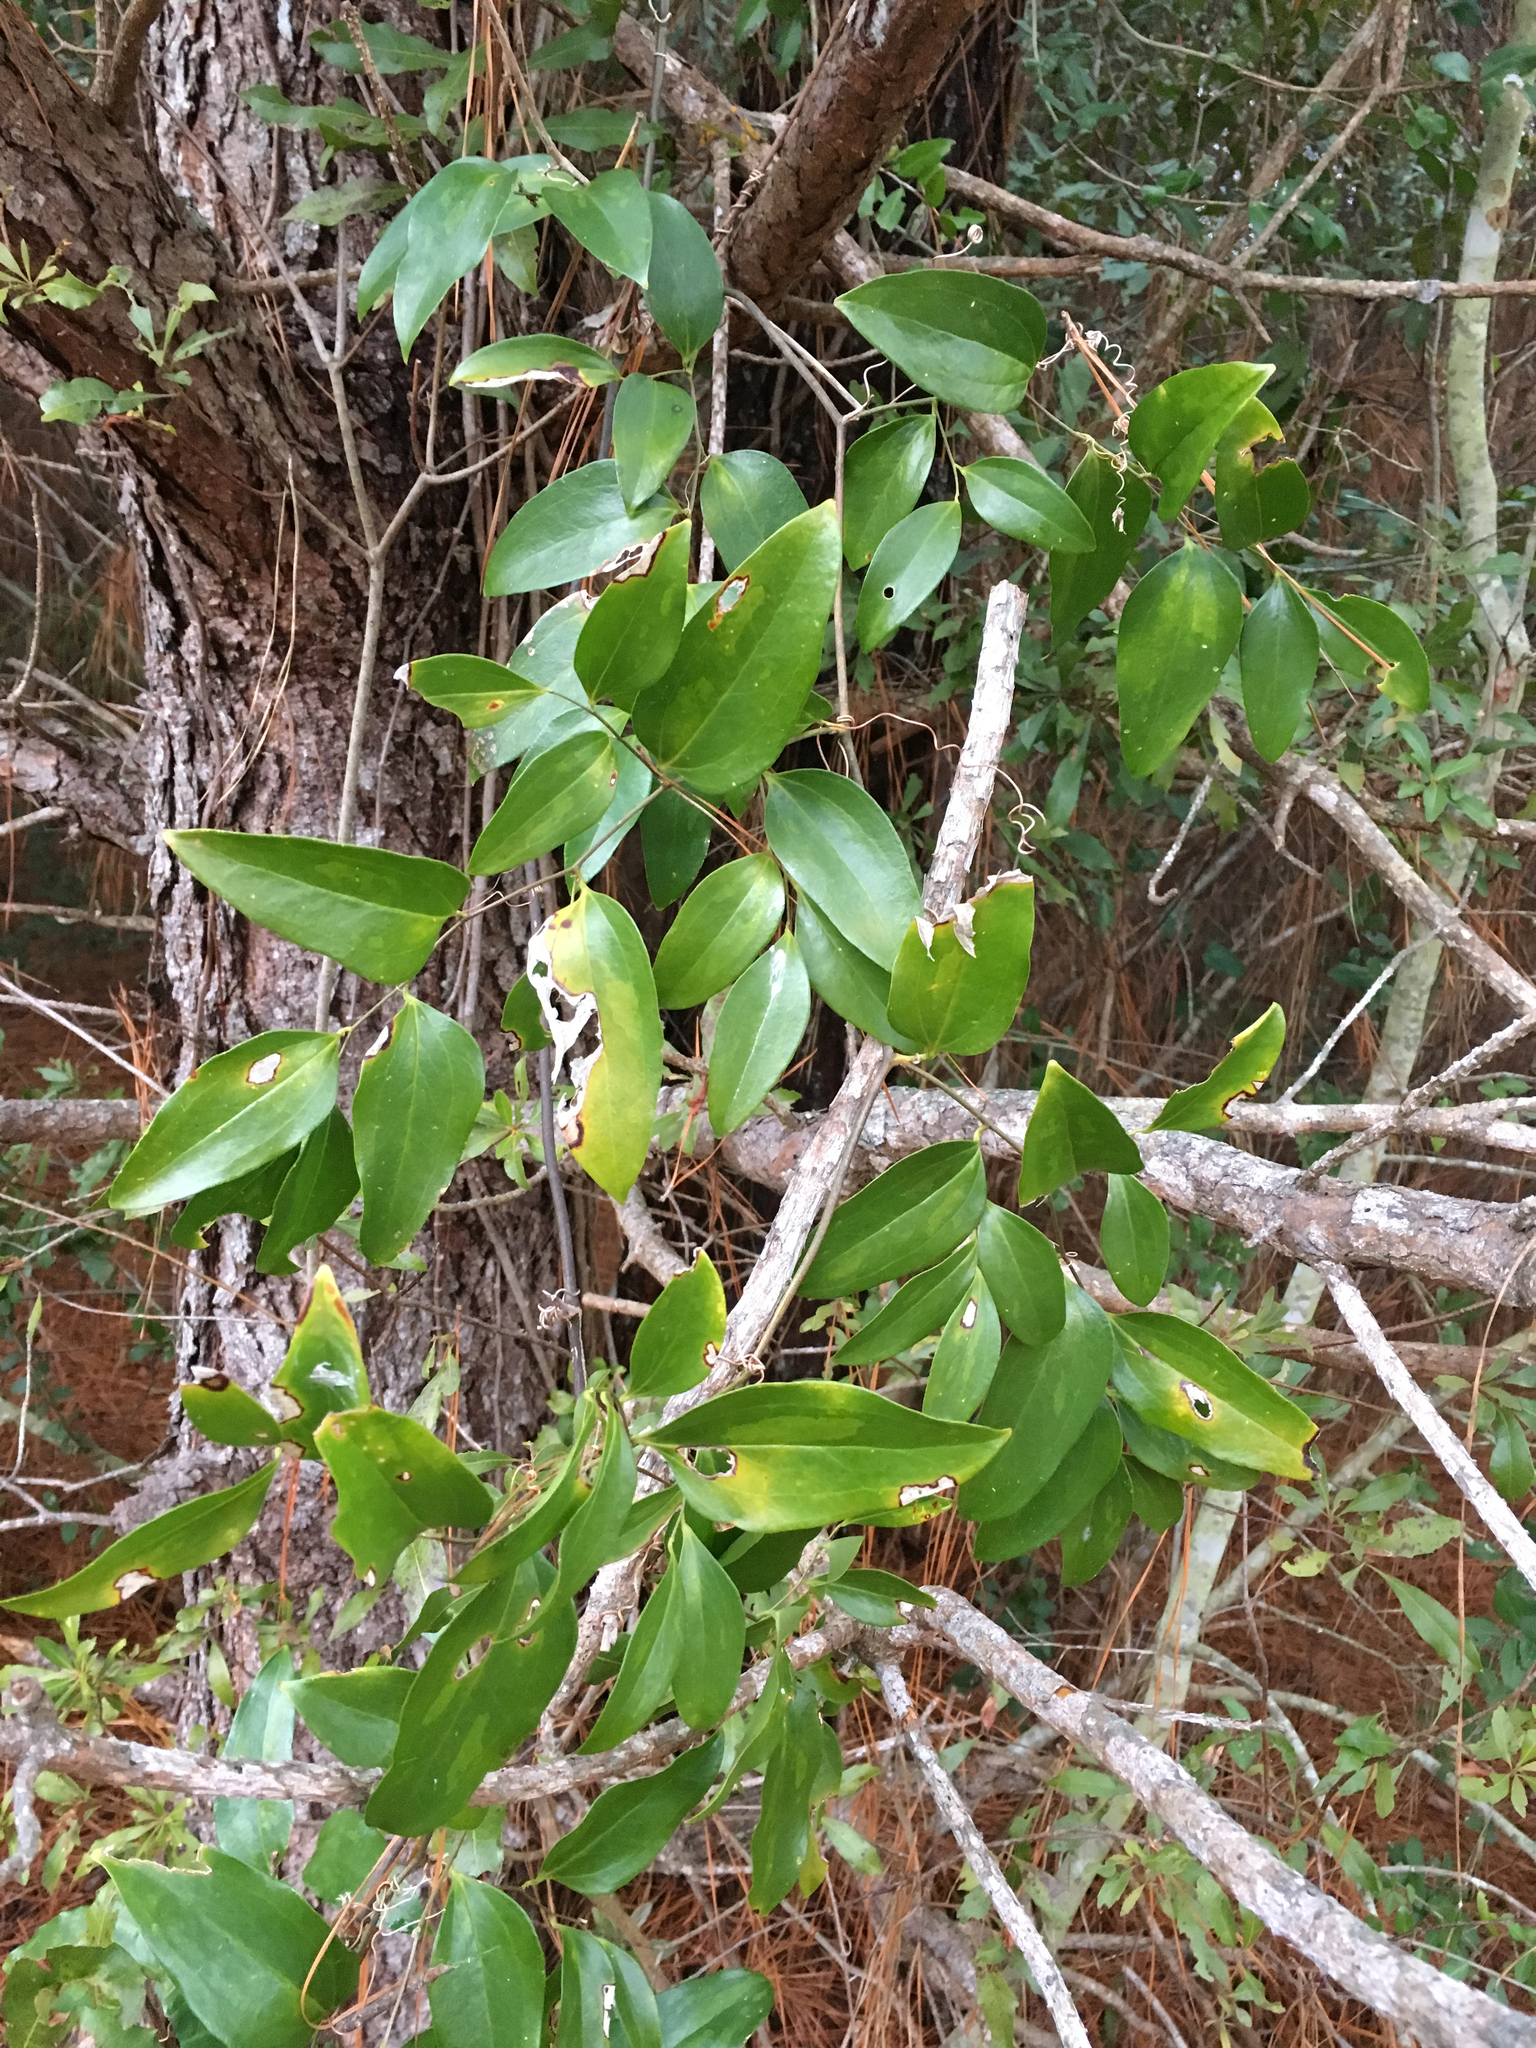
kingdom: Plantae
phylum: Tracheophyta
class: Liliopsida
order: Liliales
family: Smilacaceae
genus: Smilax
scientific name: Smilax maritima
